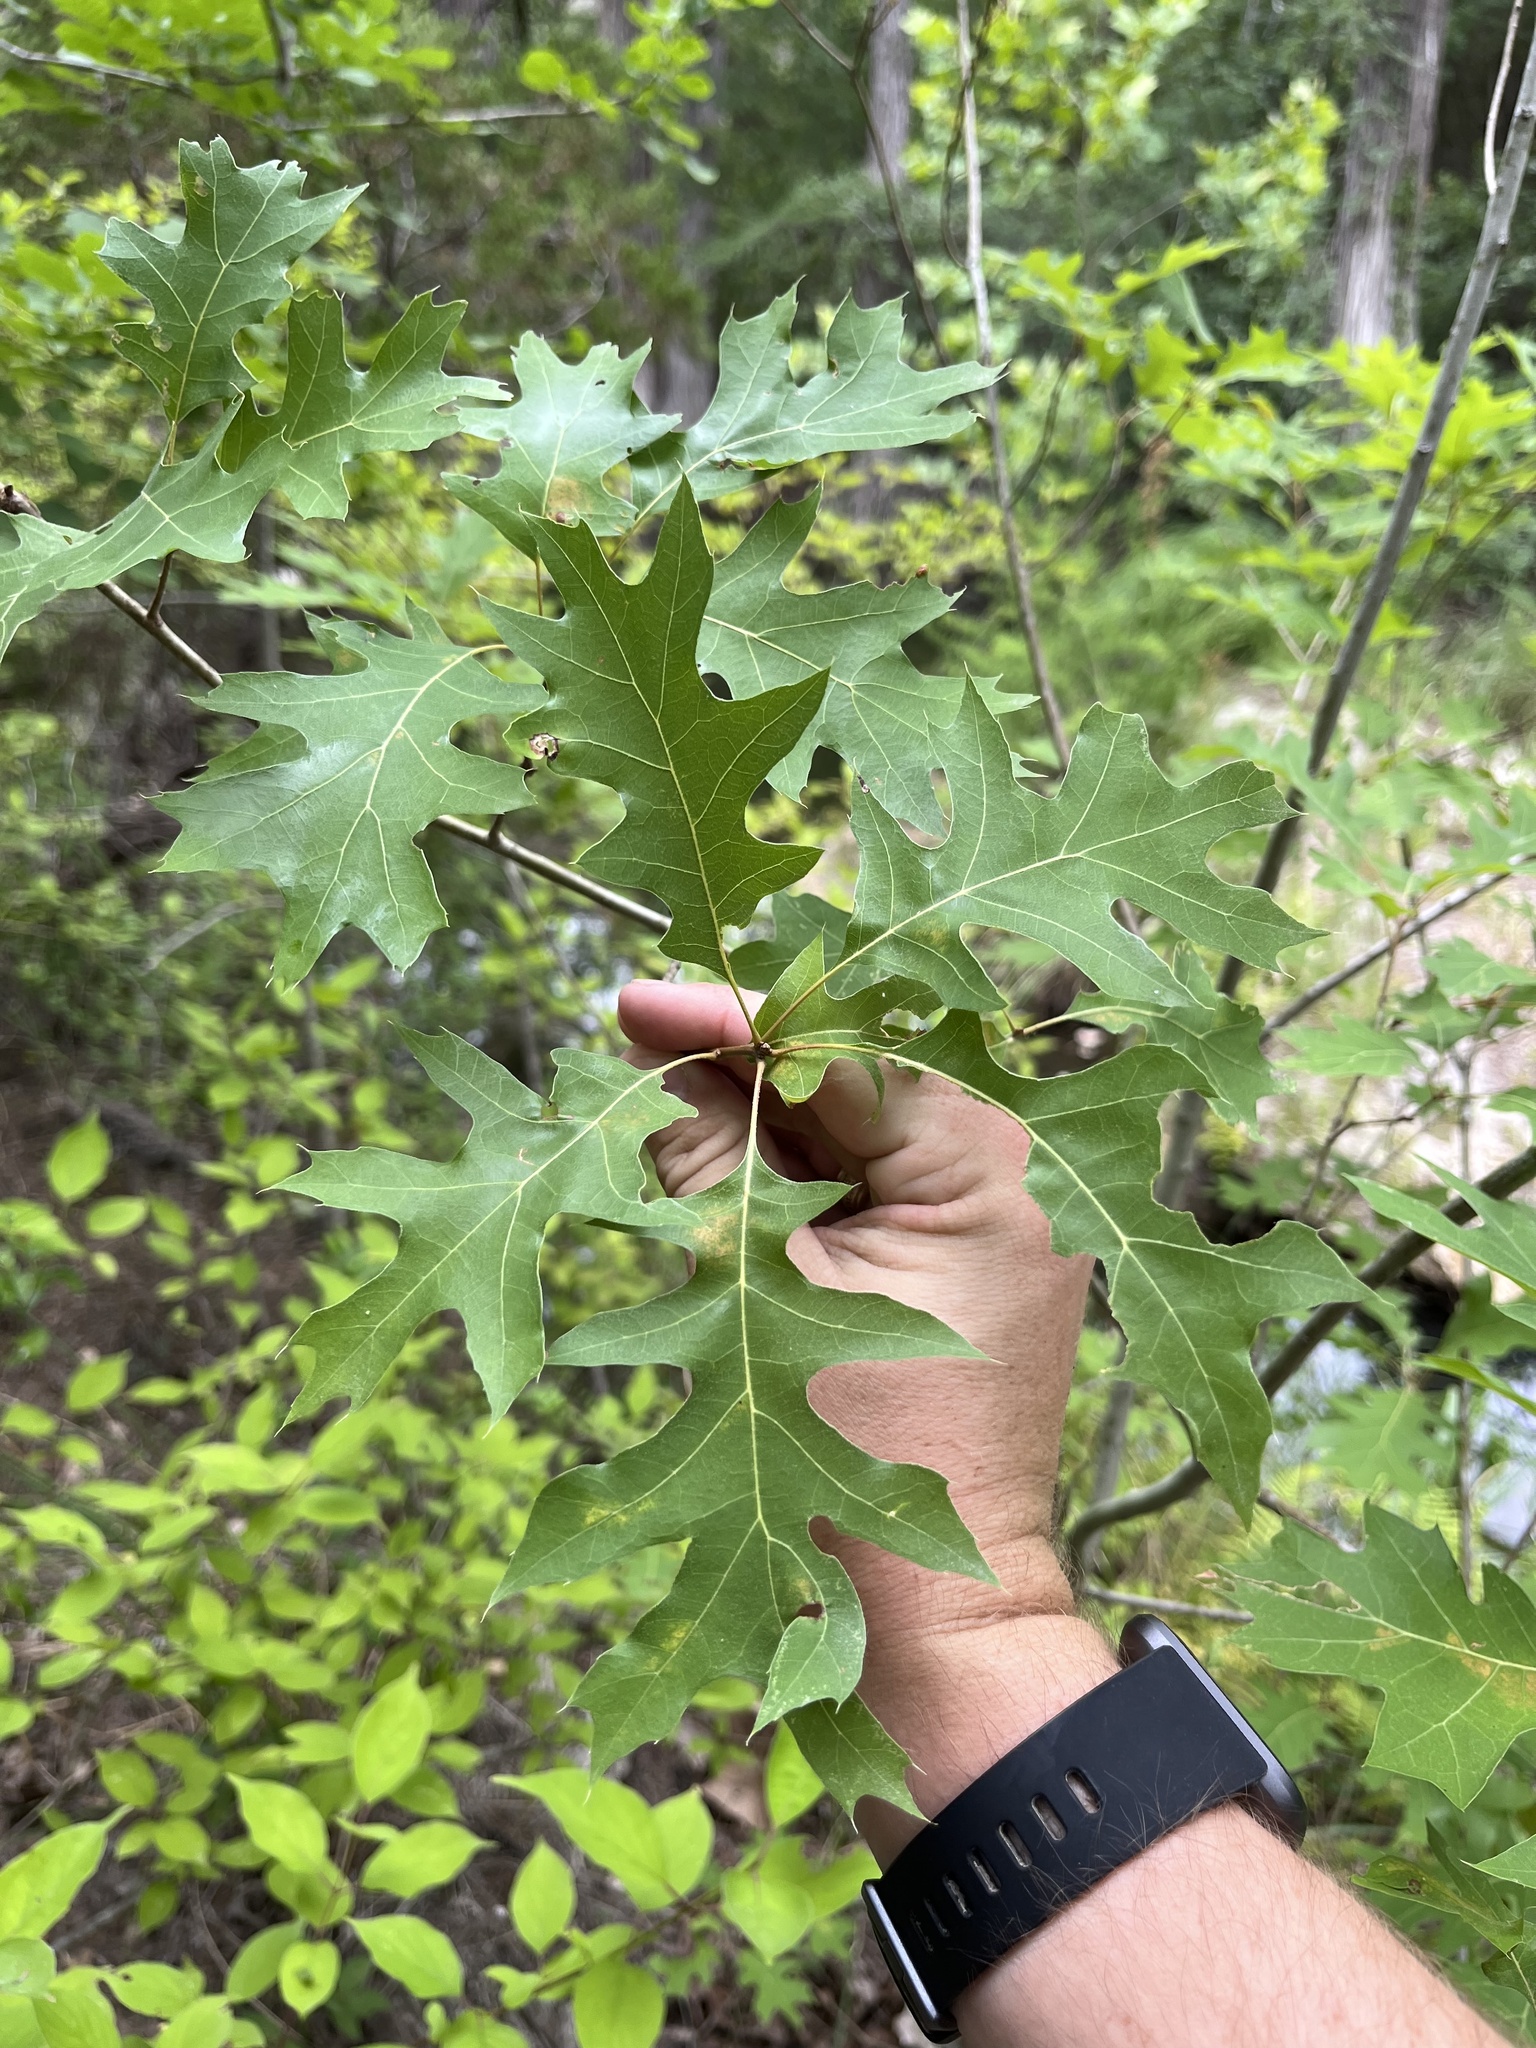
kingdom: Plantae
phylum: Tracheophyta
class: Magnoliopsida
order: Fagales
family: Fagaceae
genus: Quercus
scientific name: Quercus buckleyi
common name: Buckley oak
